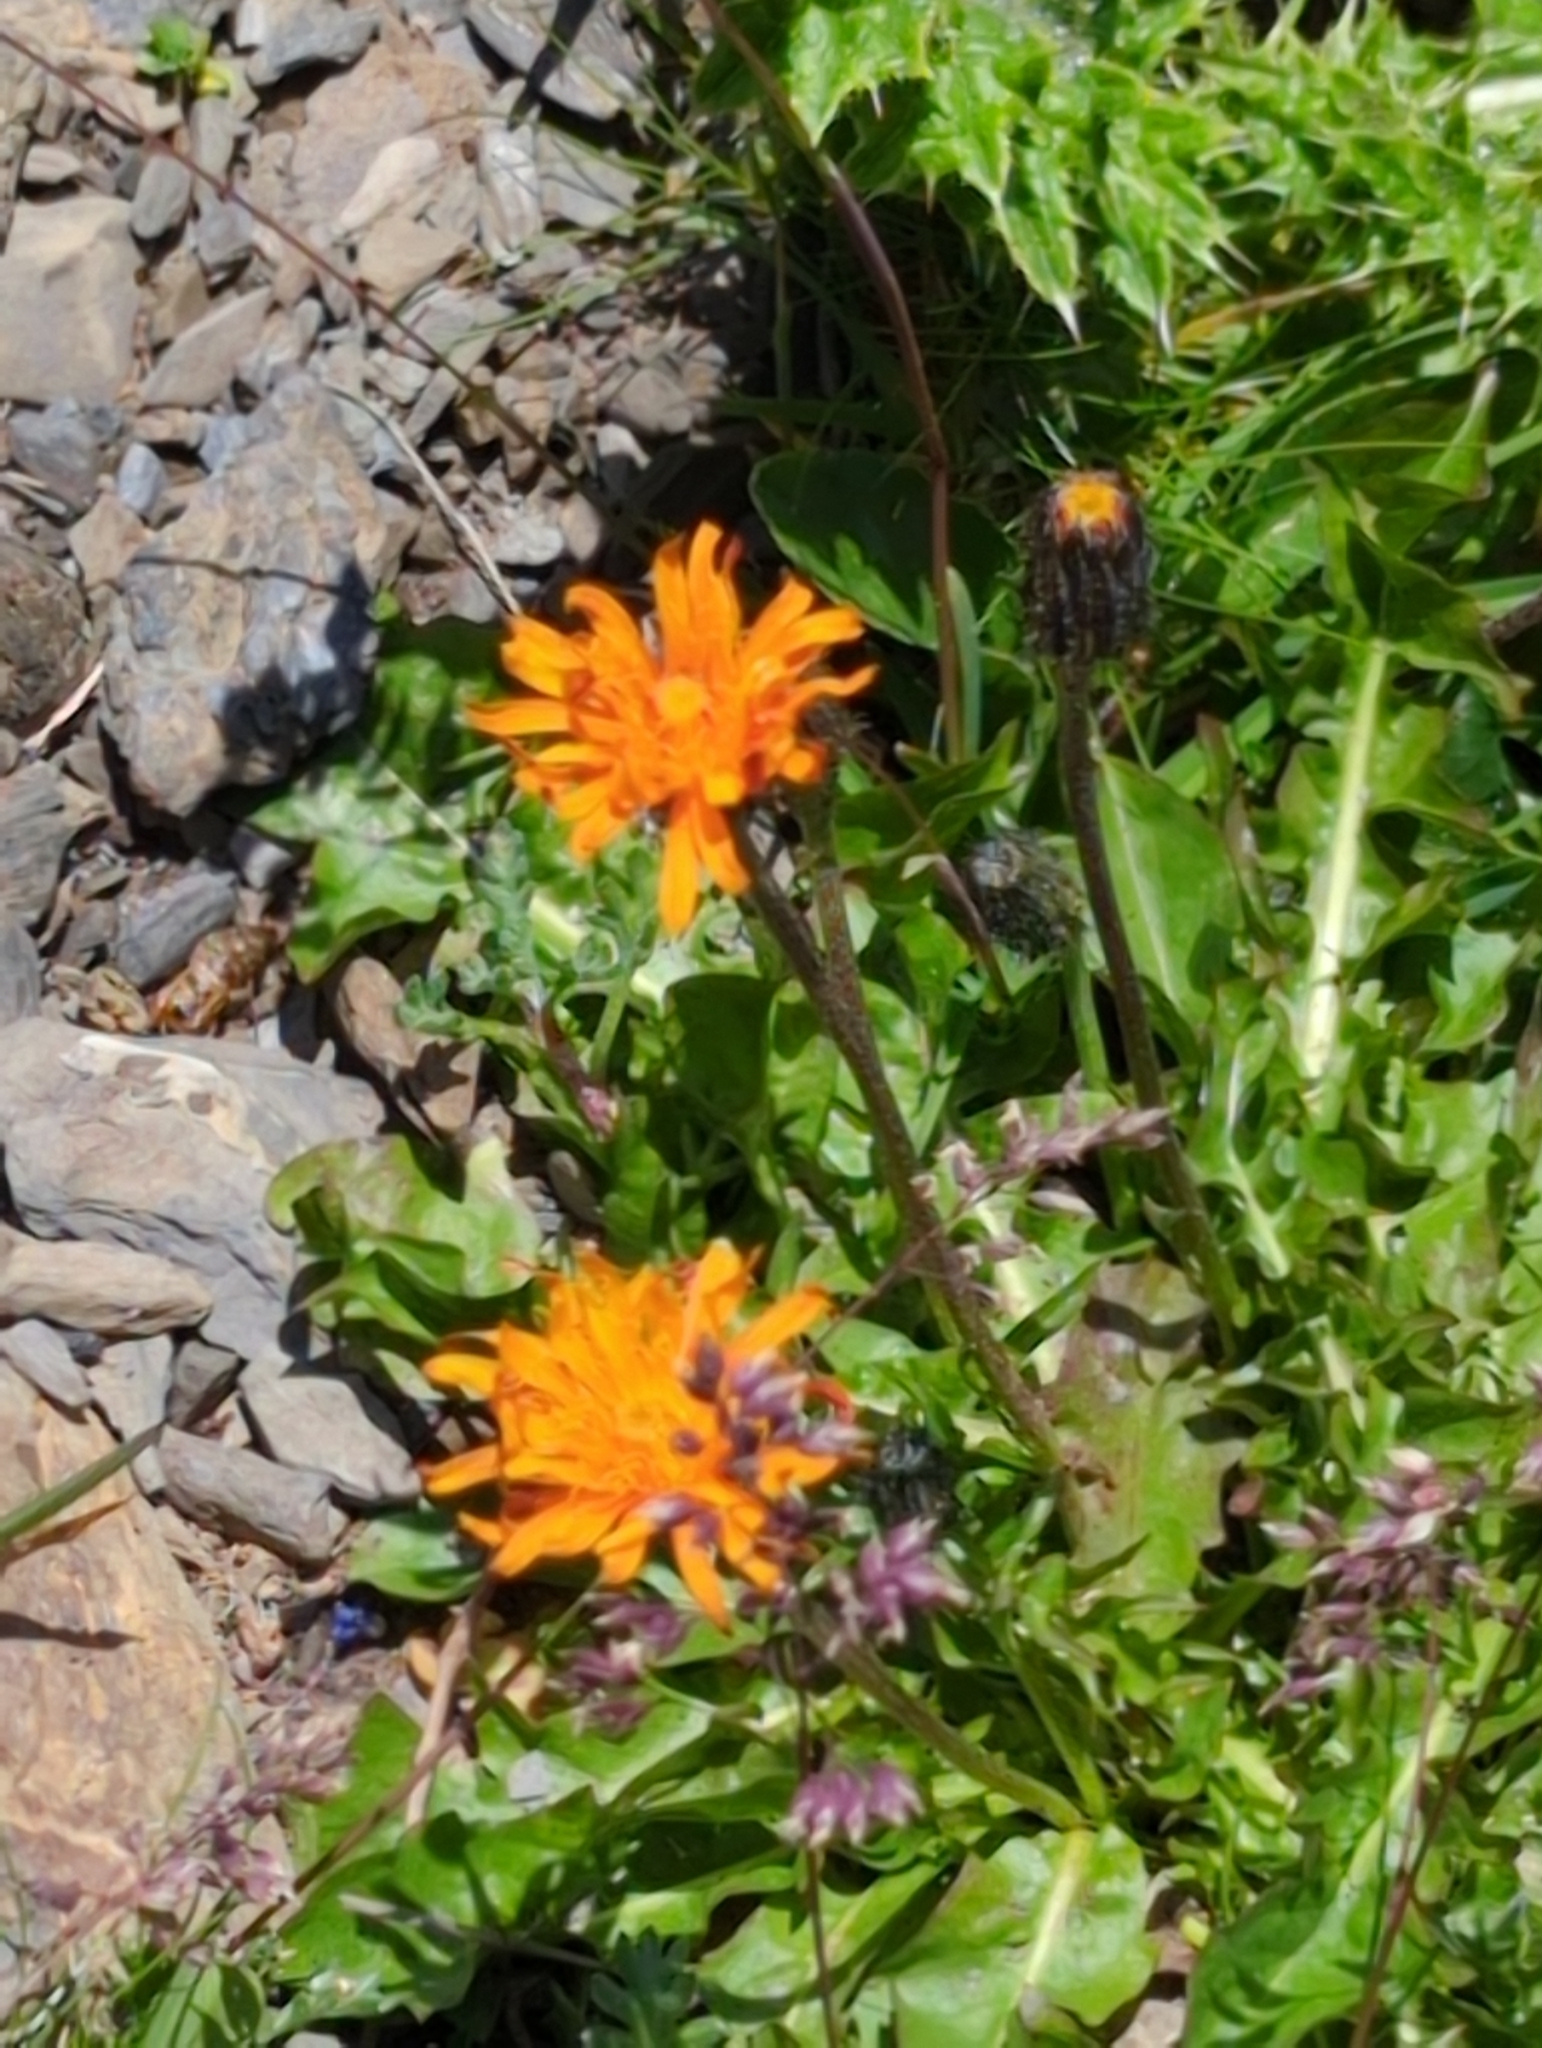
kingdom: Plantae
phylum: Tracheophyta
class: Magnoliopsida
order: Asterales
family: Asteraceae
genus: Crepis
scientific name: Crepis aurea
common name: Golden hawk's-beard
